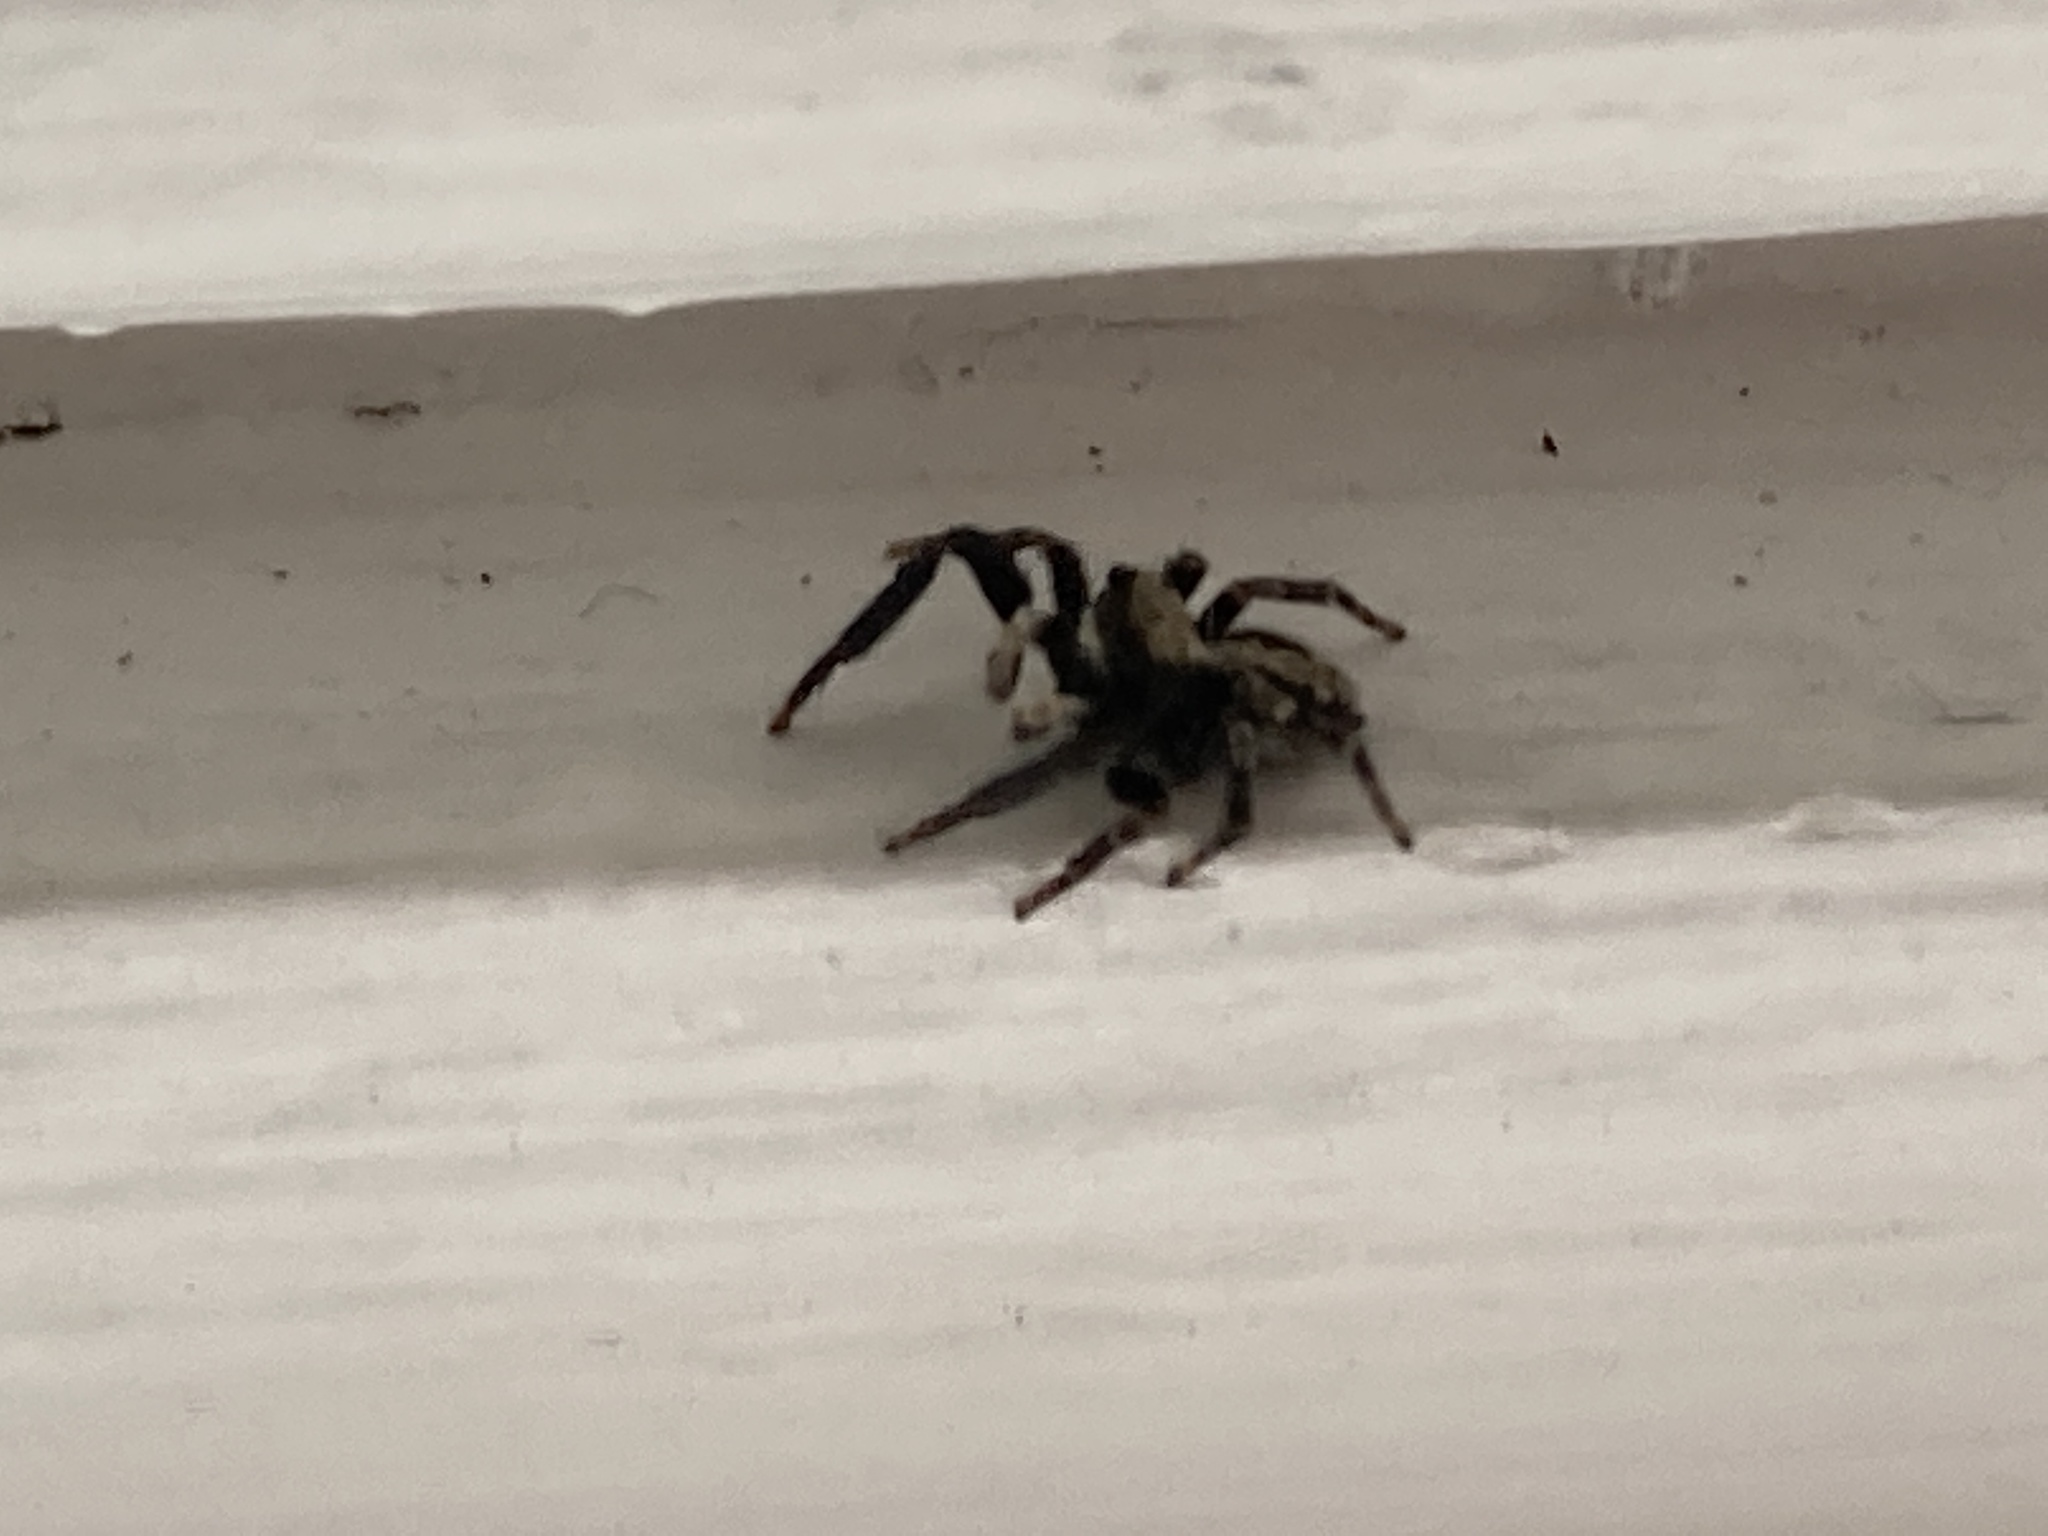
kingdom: Animalia
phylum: Arthropoda
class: Arachnida
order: Araneae
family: Salticidae
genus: Pseudeuophrys
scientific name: Pseudeuophrys lanigera
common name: Jumping spider
